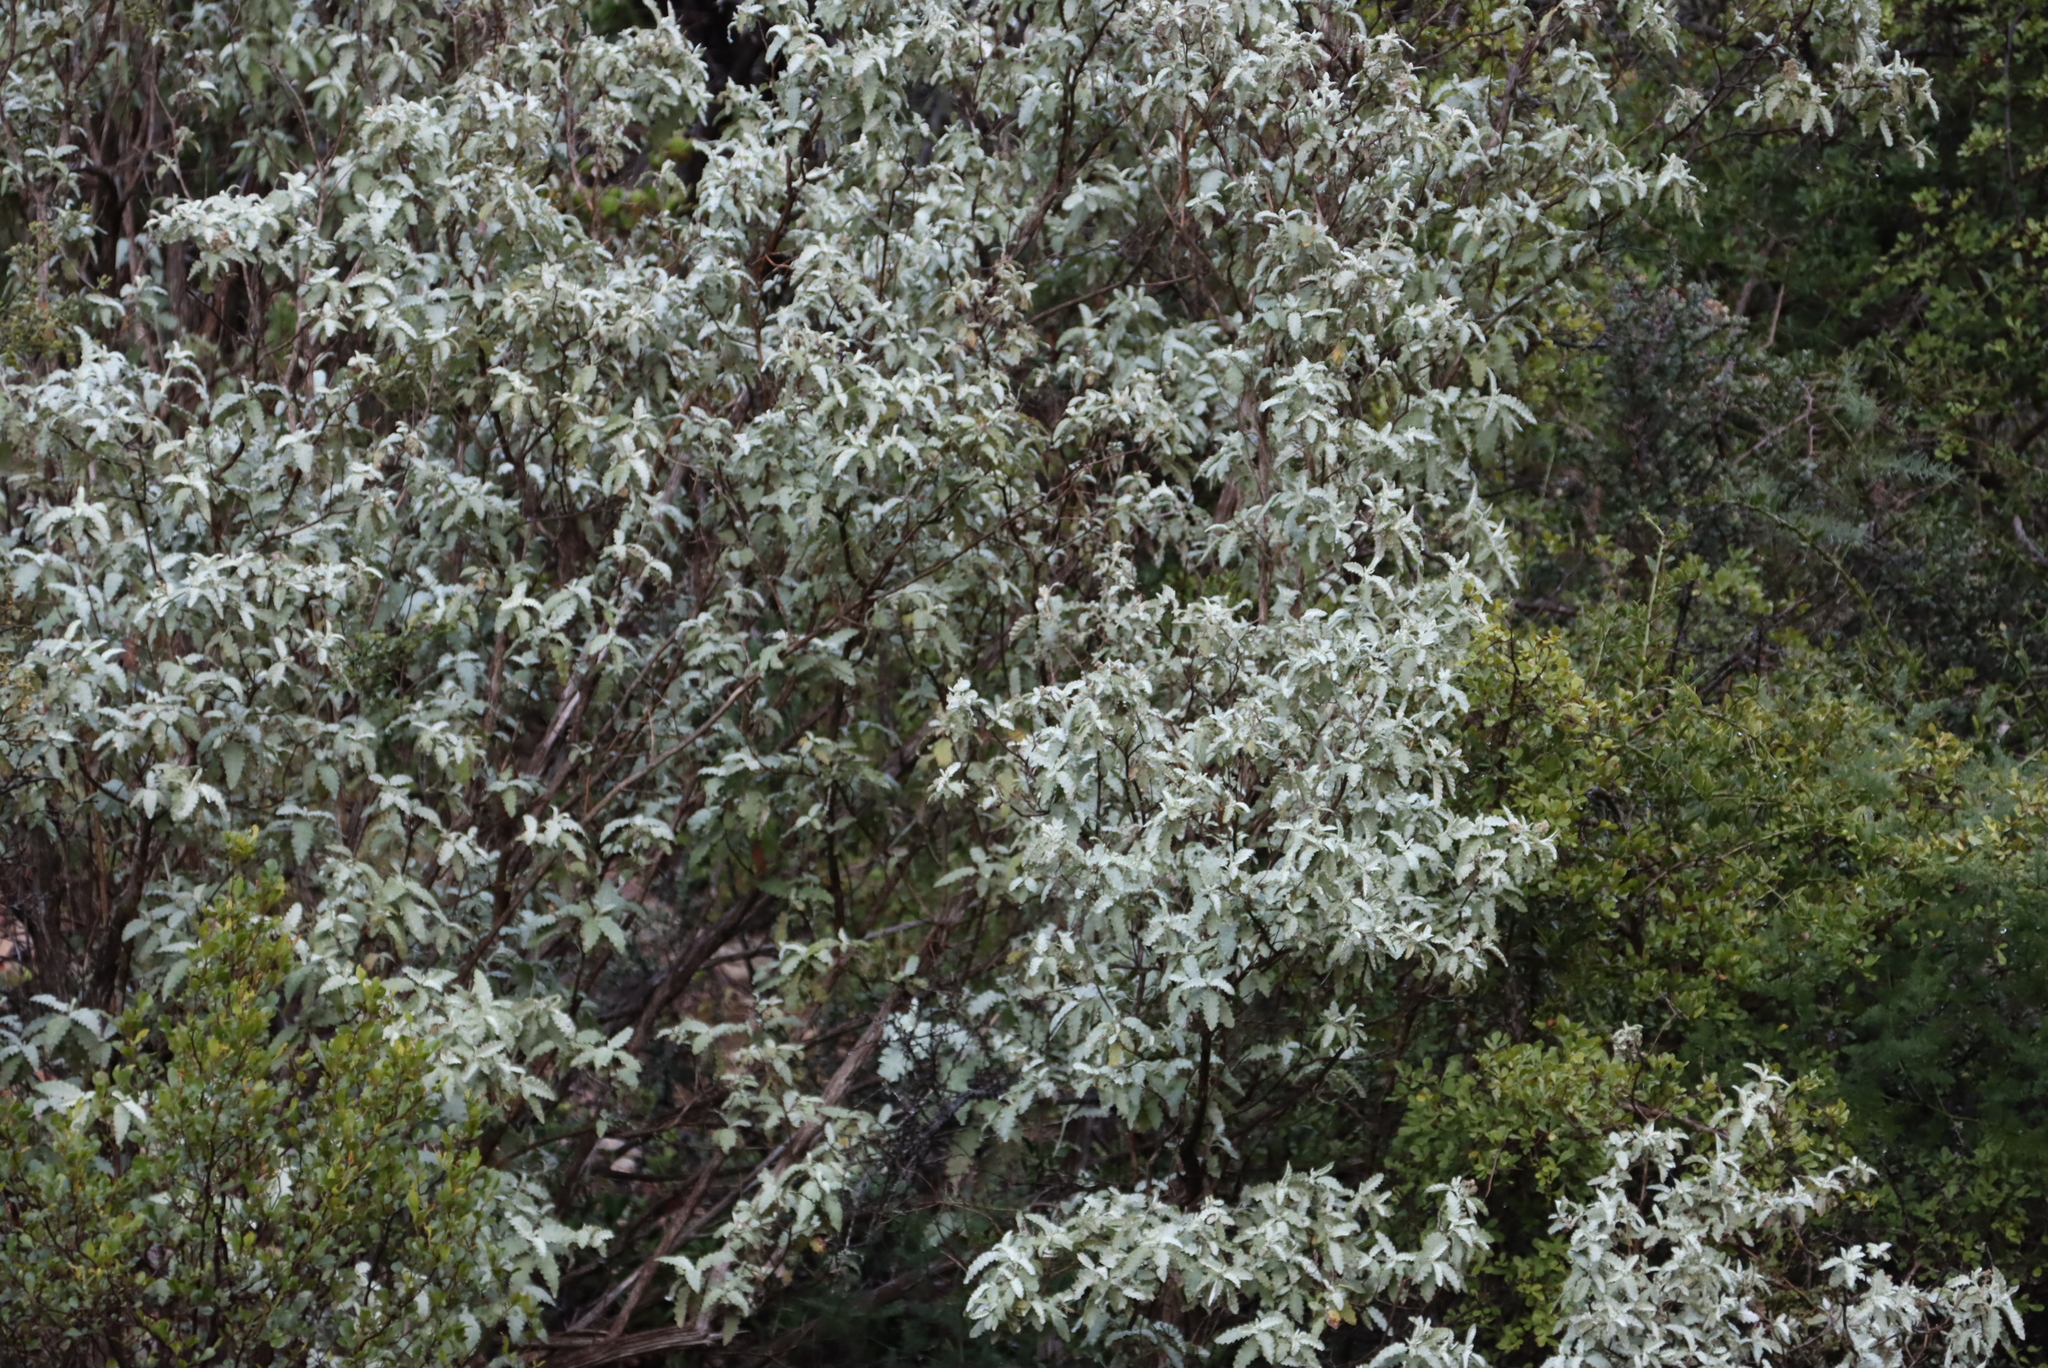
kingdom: Plantae
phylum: Tracheophyta
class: Magnoliopsida
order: Lamiales
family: Scrophulariaceae
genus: Buddleja
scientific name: Buddleja glomerata
